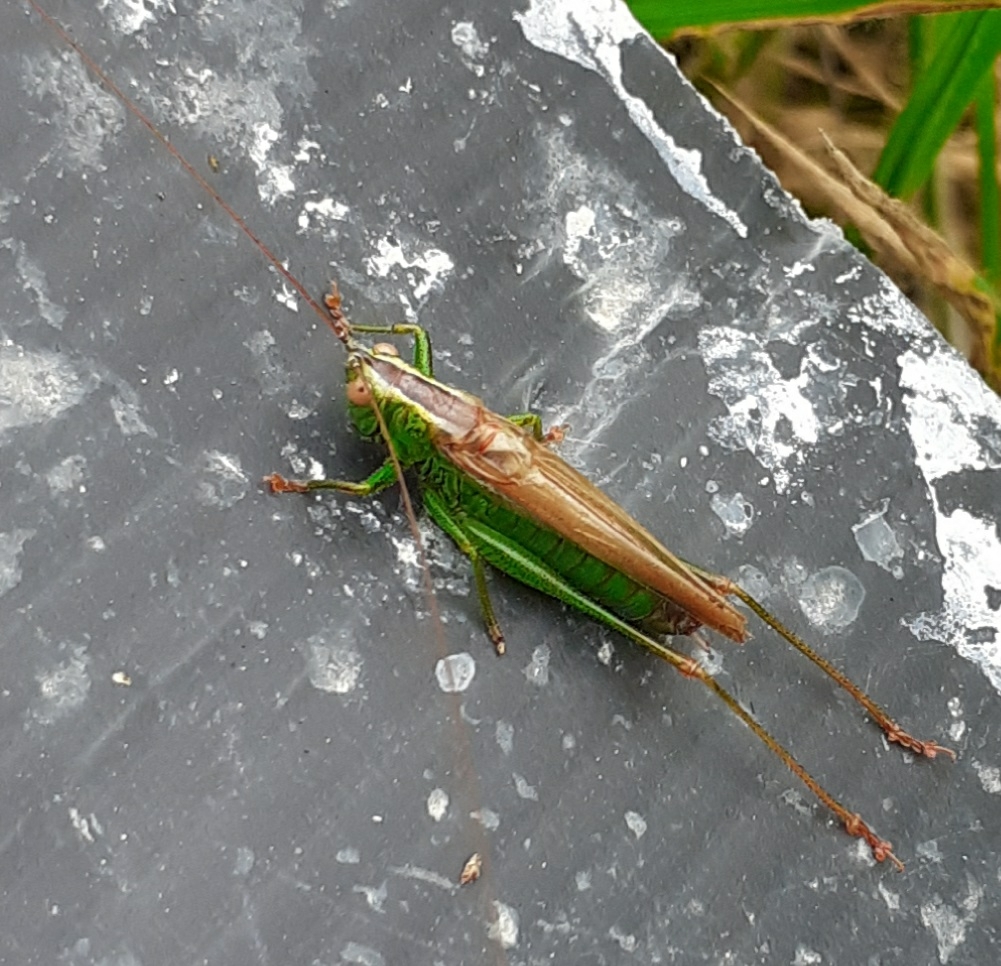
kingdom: Animalia
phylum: Arthropoda
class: Insecta
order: Orthoptera
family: Tettigoniidae
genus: Conocephalus
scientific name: Conocephalus fuscus
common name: Long-winged conehead
